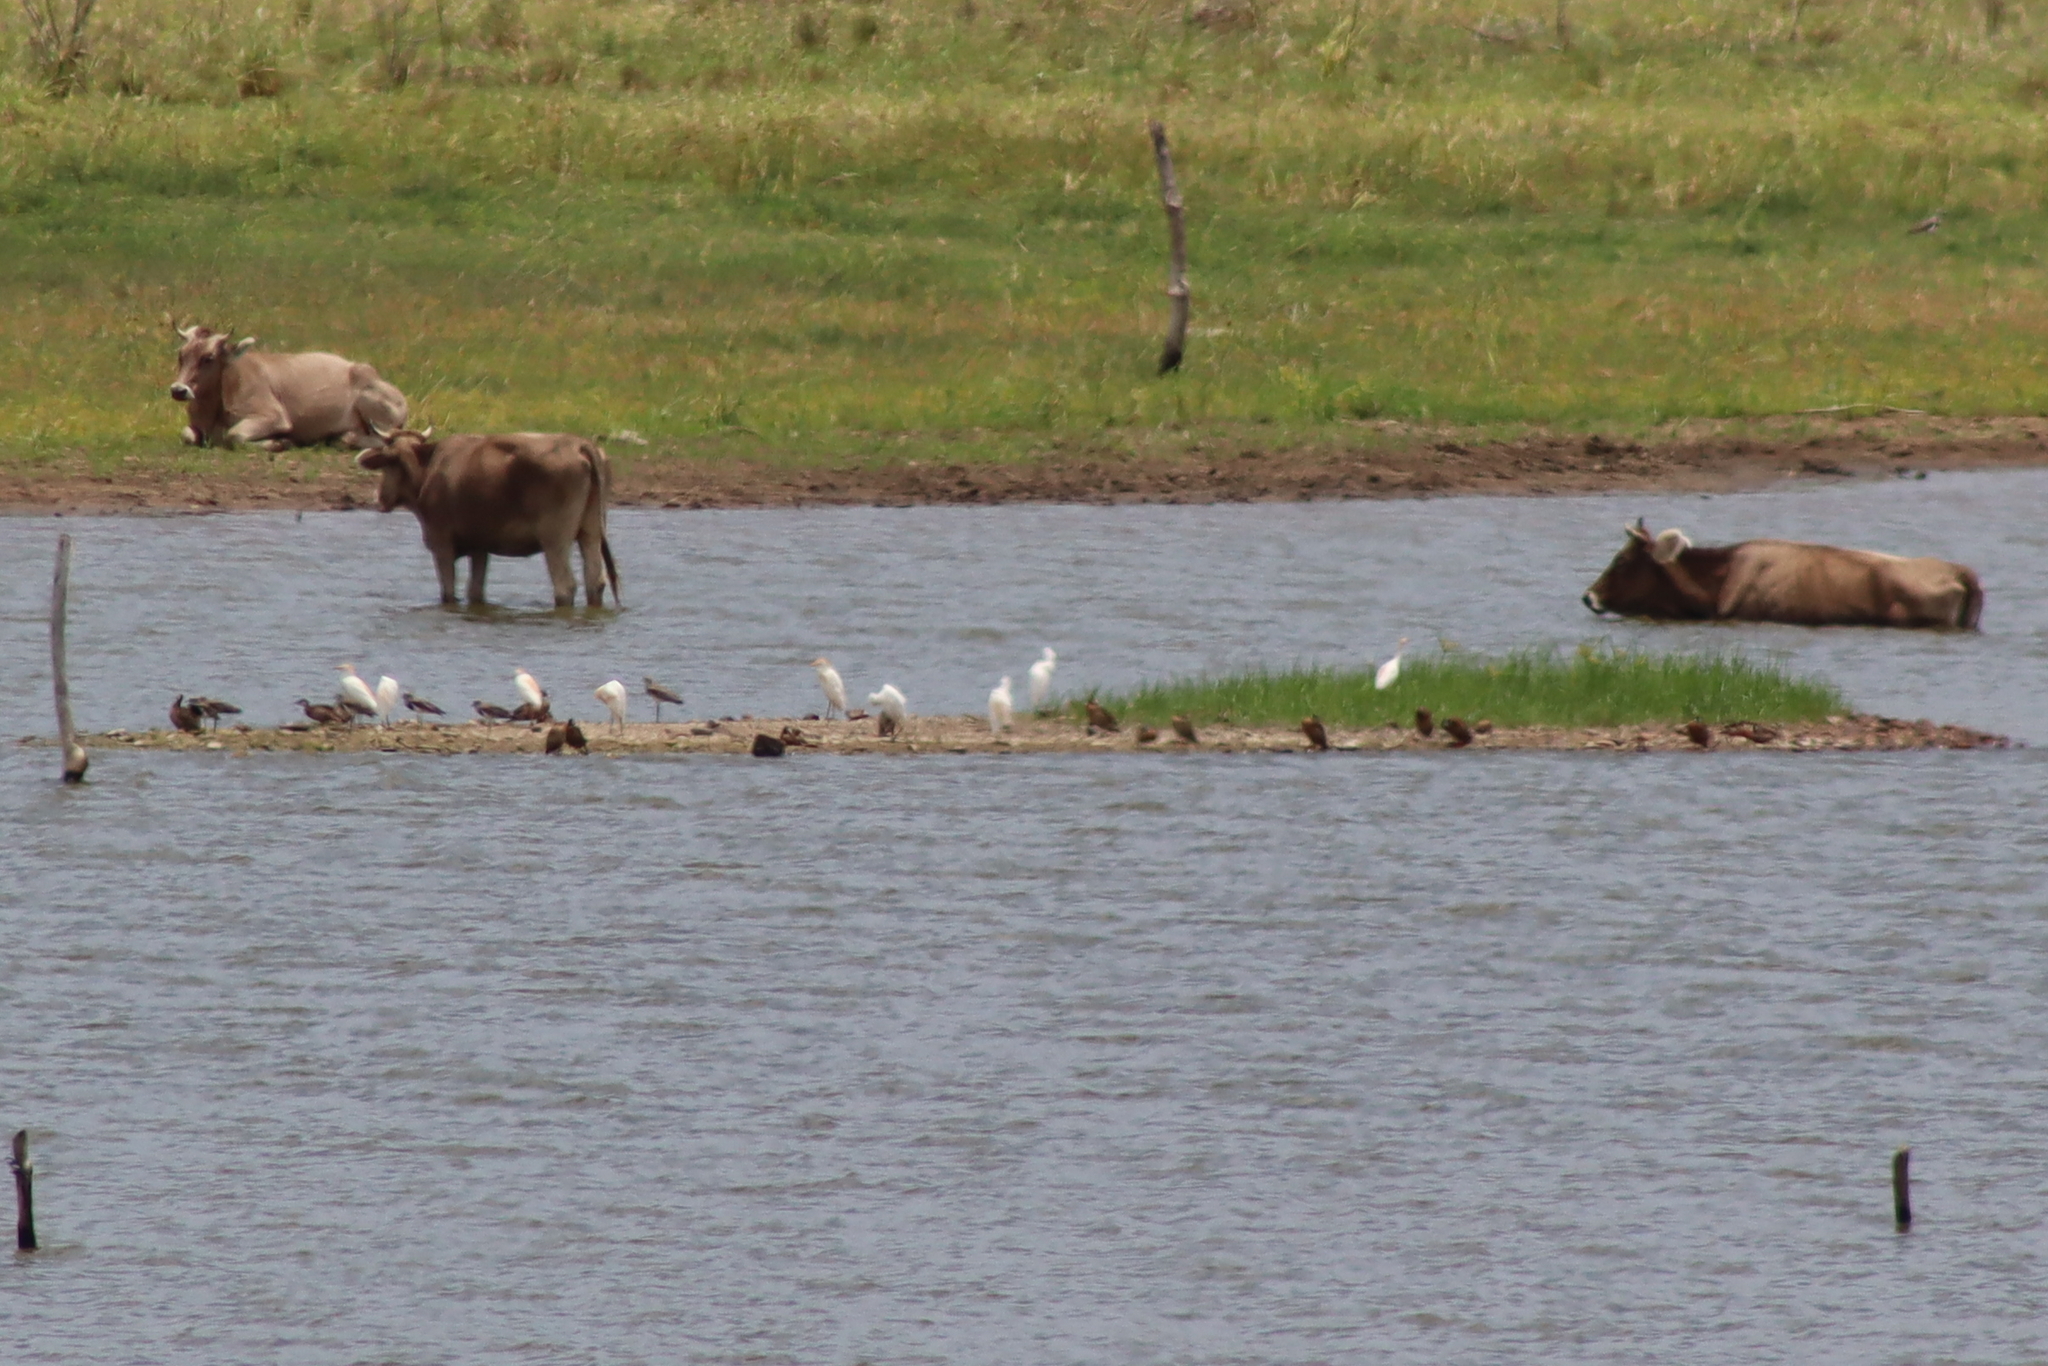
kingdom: Animalia
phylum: Chordata
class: Aves
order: Pelecaniformes
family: Ardeidae
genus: Bubulcus
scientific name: Bubulcus ibis
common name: Cattle egret
